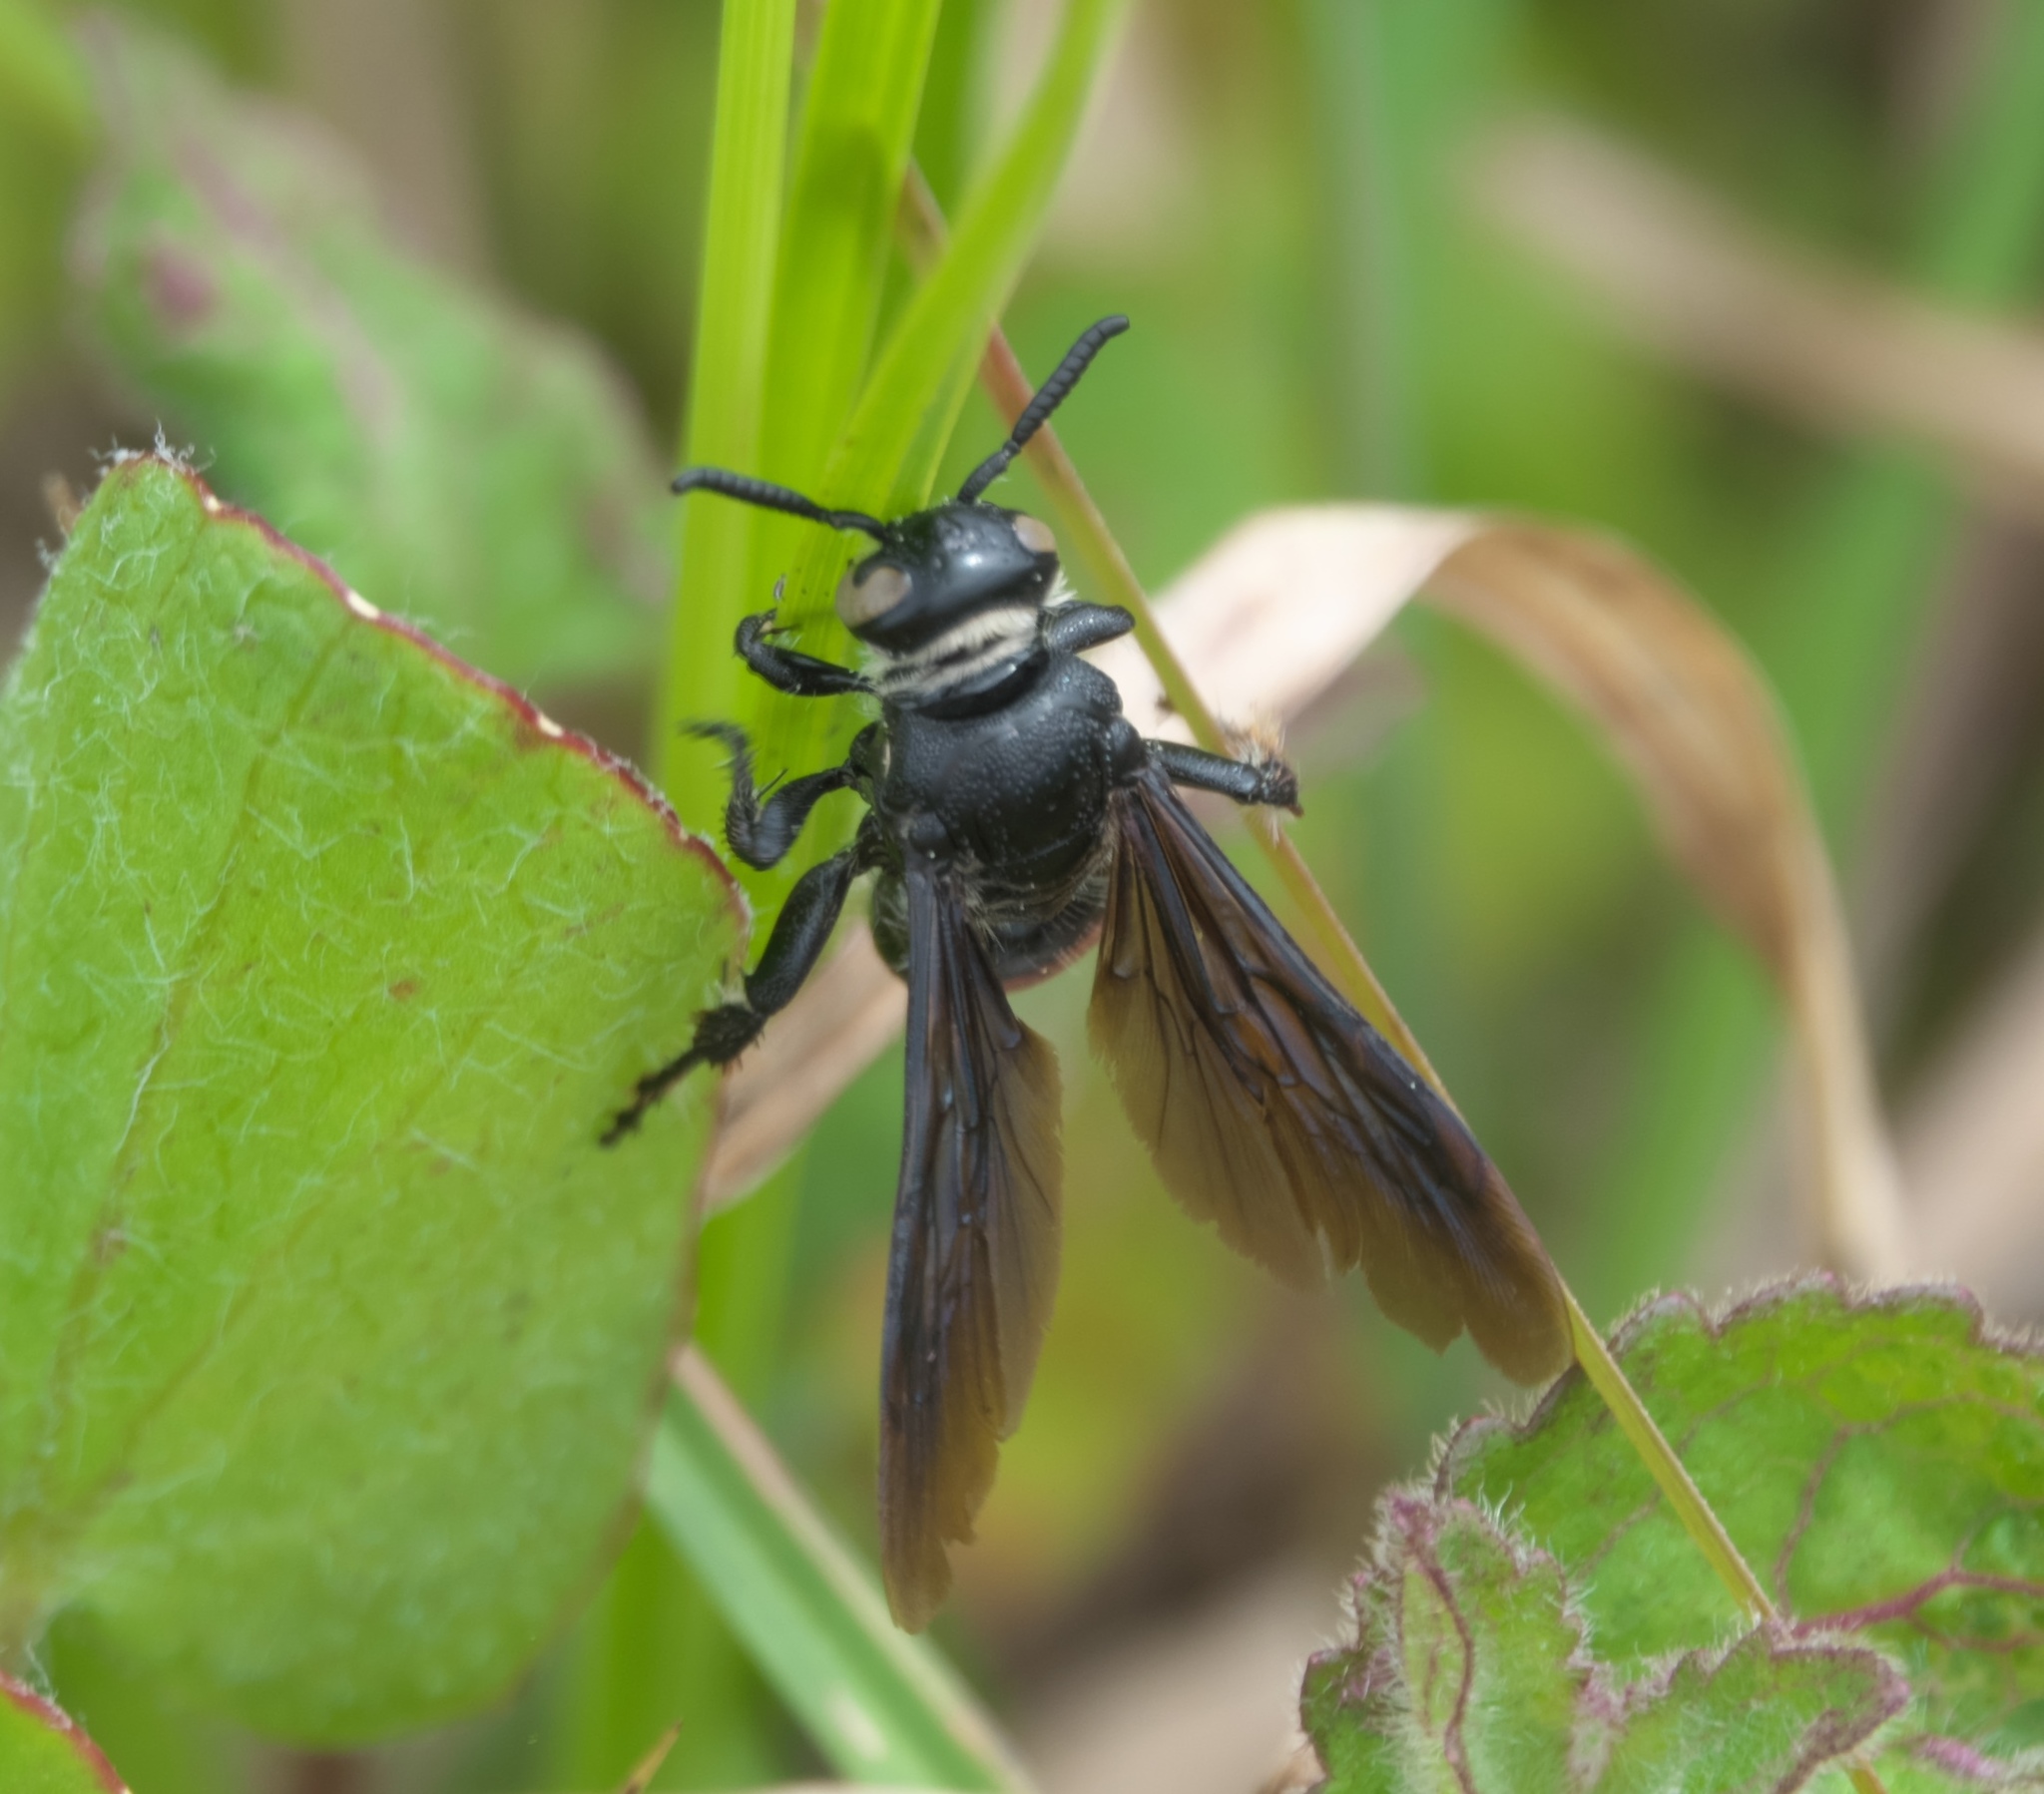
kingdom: Animalia
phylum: Arthropoda
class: Insecta
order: Hymenoptera
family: Scoliidae
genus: Dielis
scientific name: Dielis dorsata
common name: Scoliid wasp
